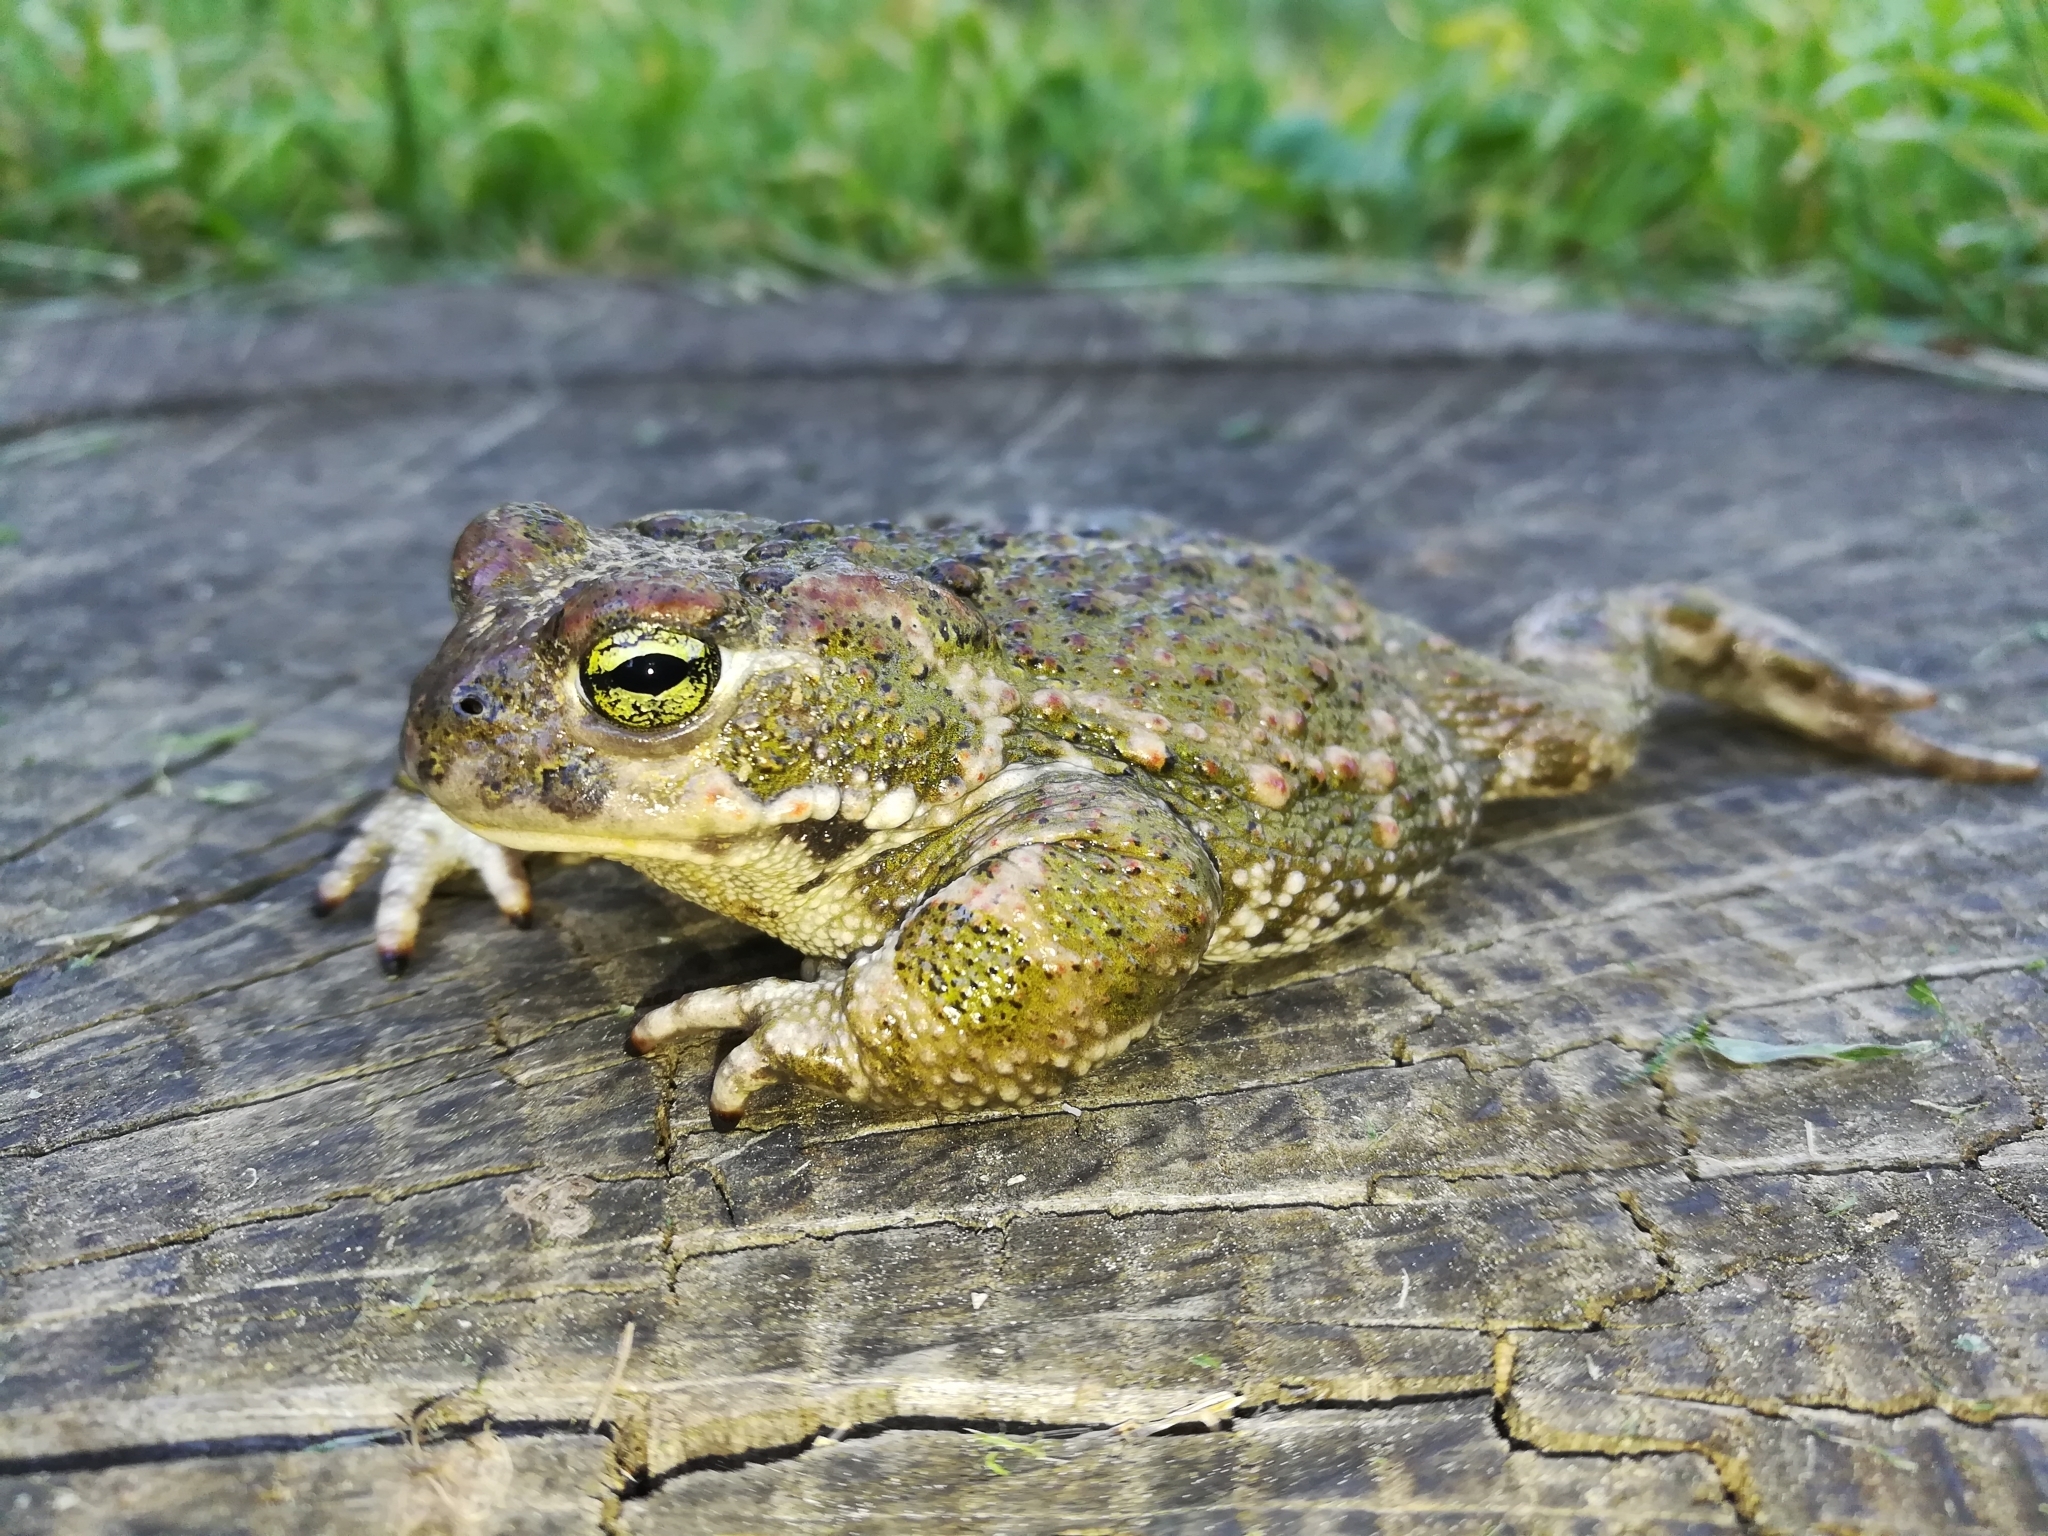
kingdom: Animalia
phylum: Chordata
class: Amphibia
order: Anura
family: Bufonidae
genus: Epidalea
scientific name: Epidalea calamita
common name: Natterjack toad
